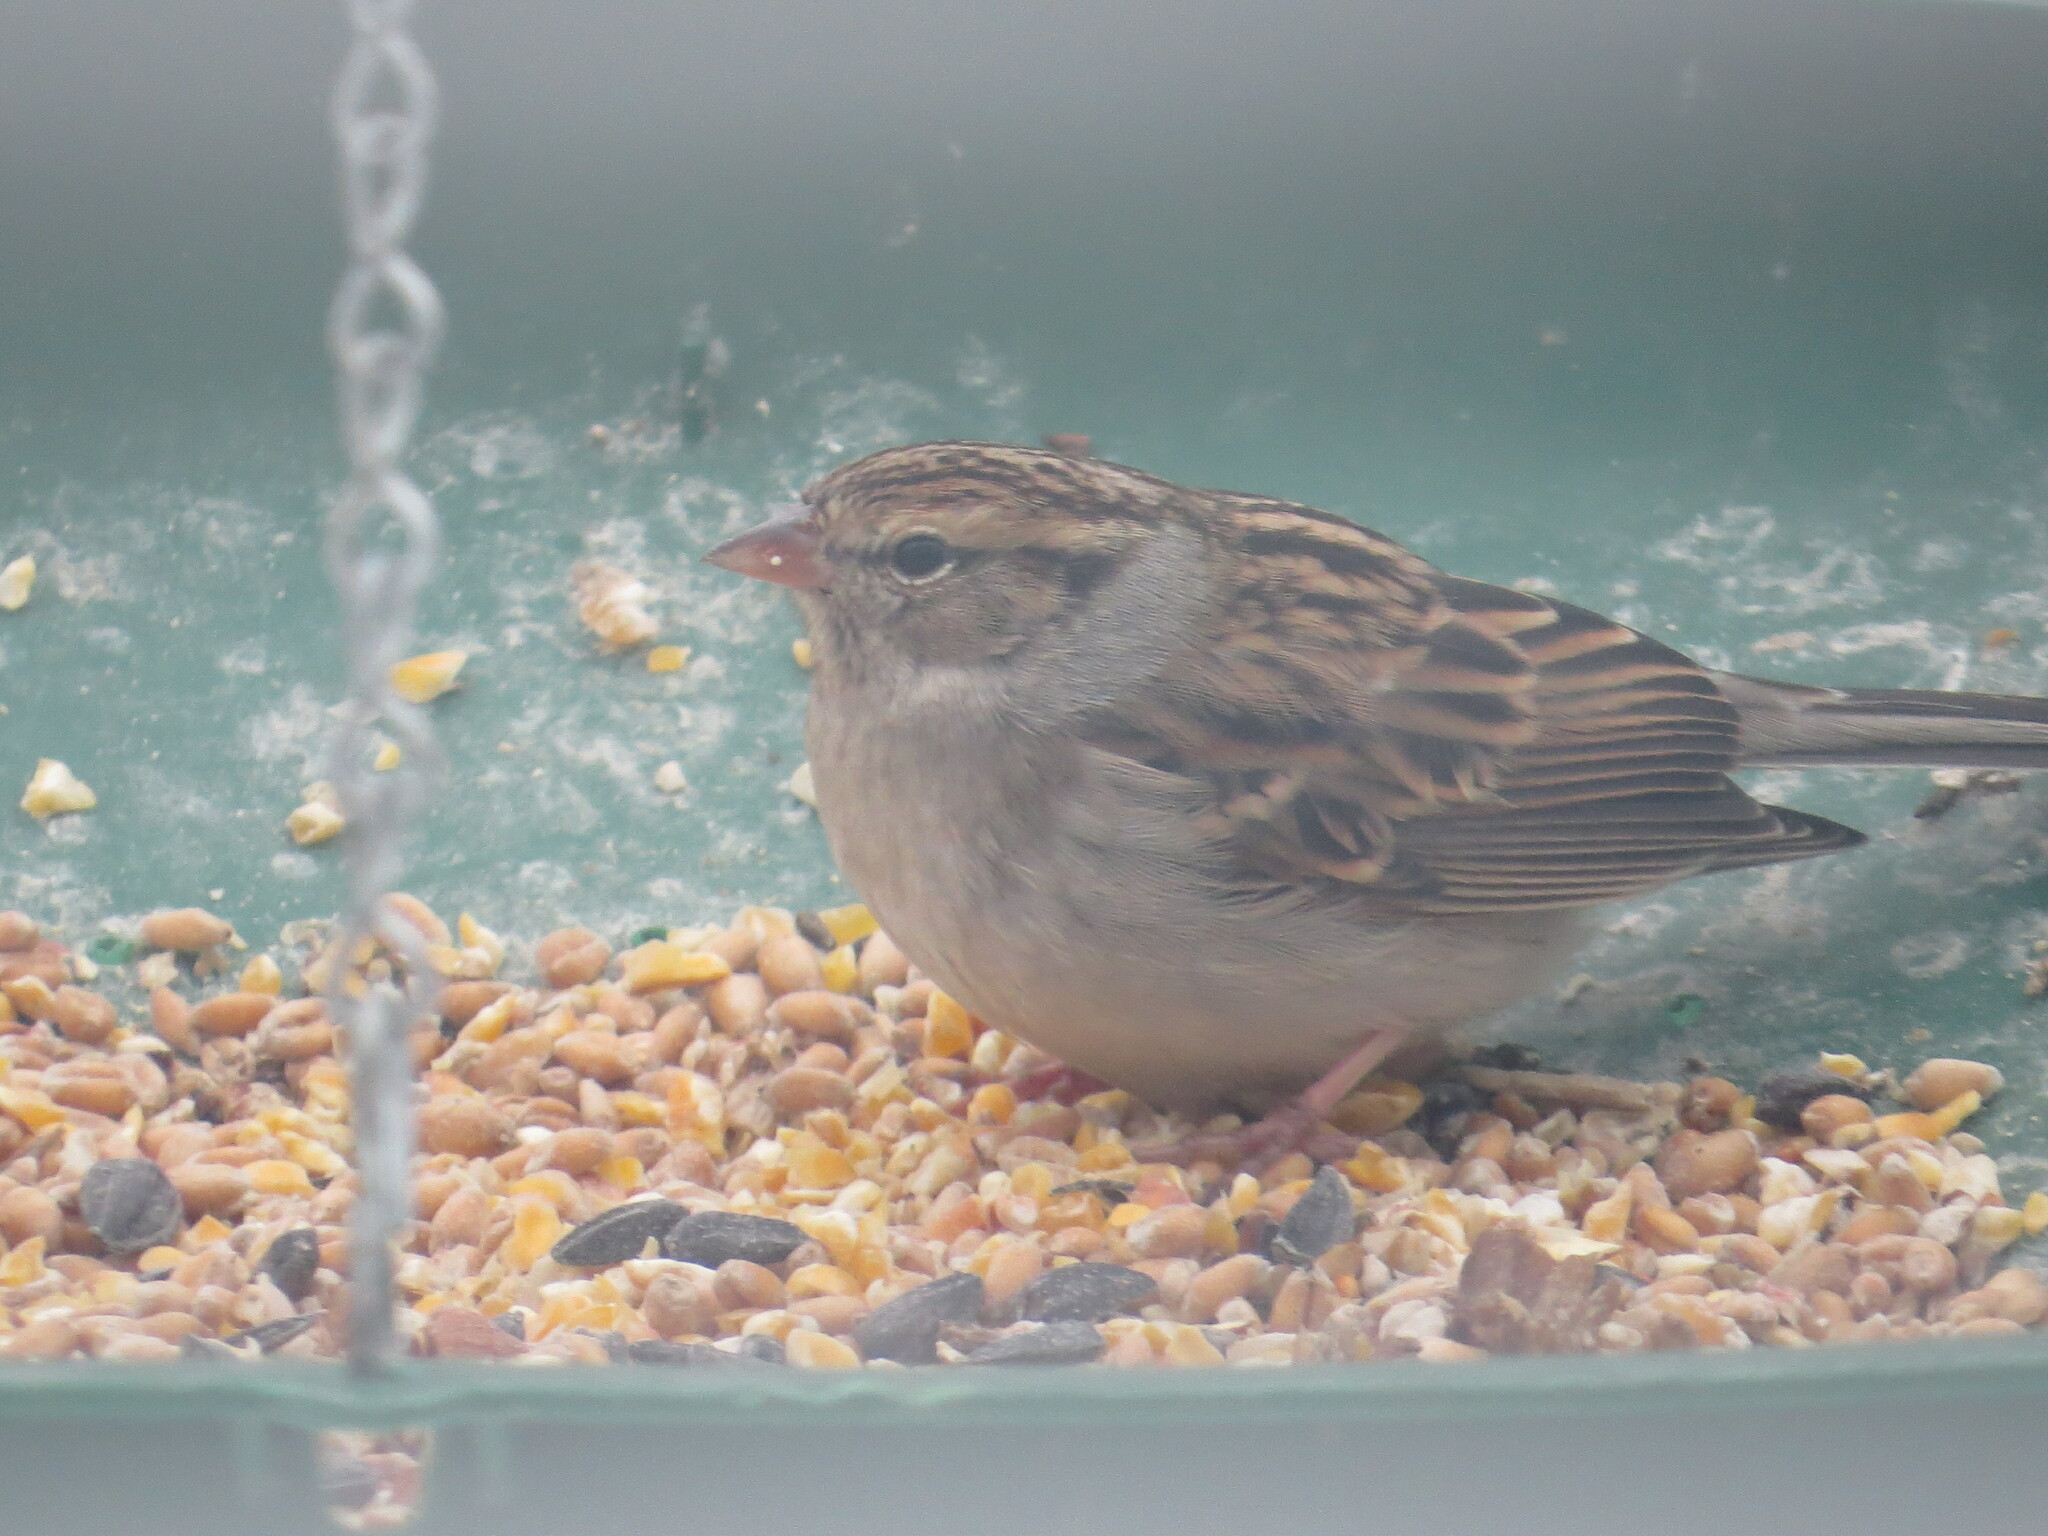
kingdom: Animalia
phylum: Chordata
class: Aves
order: Passeriformes
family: Passerellidae
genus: Spizella
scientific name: Spizella passerina
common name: Chipping sparrow
